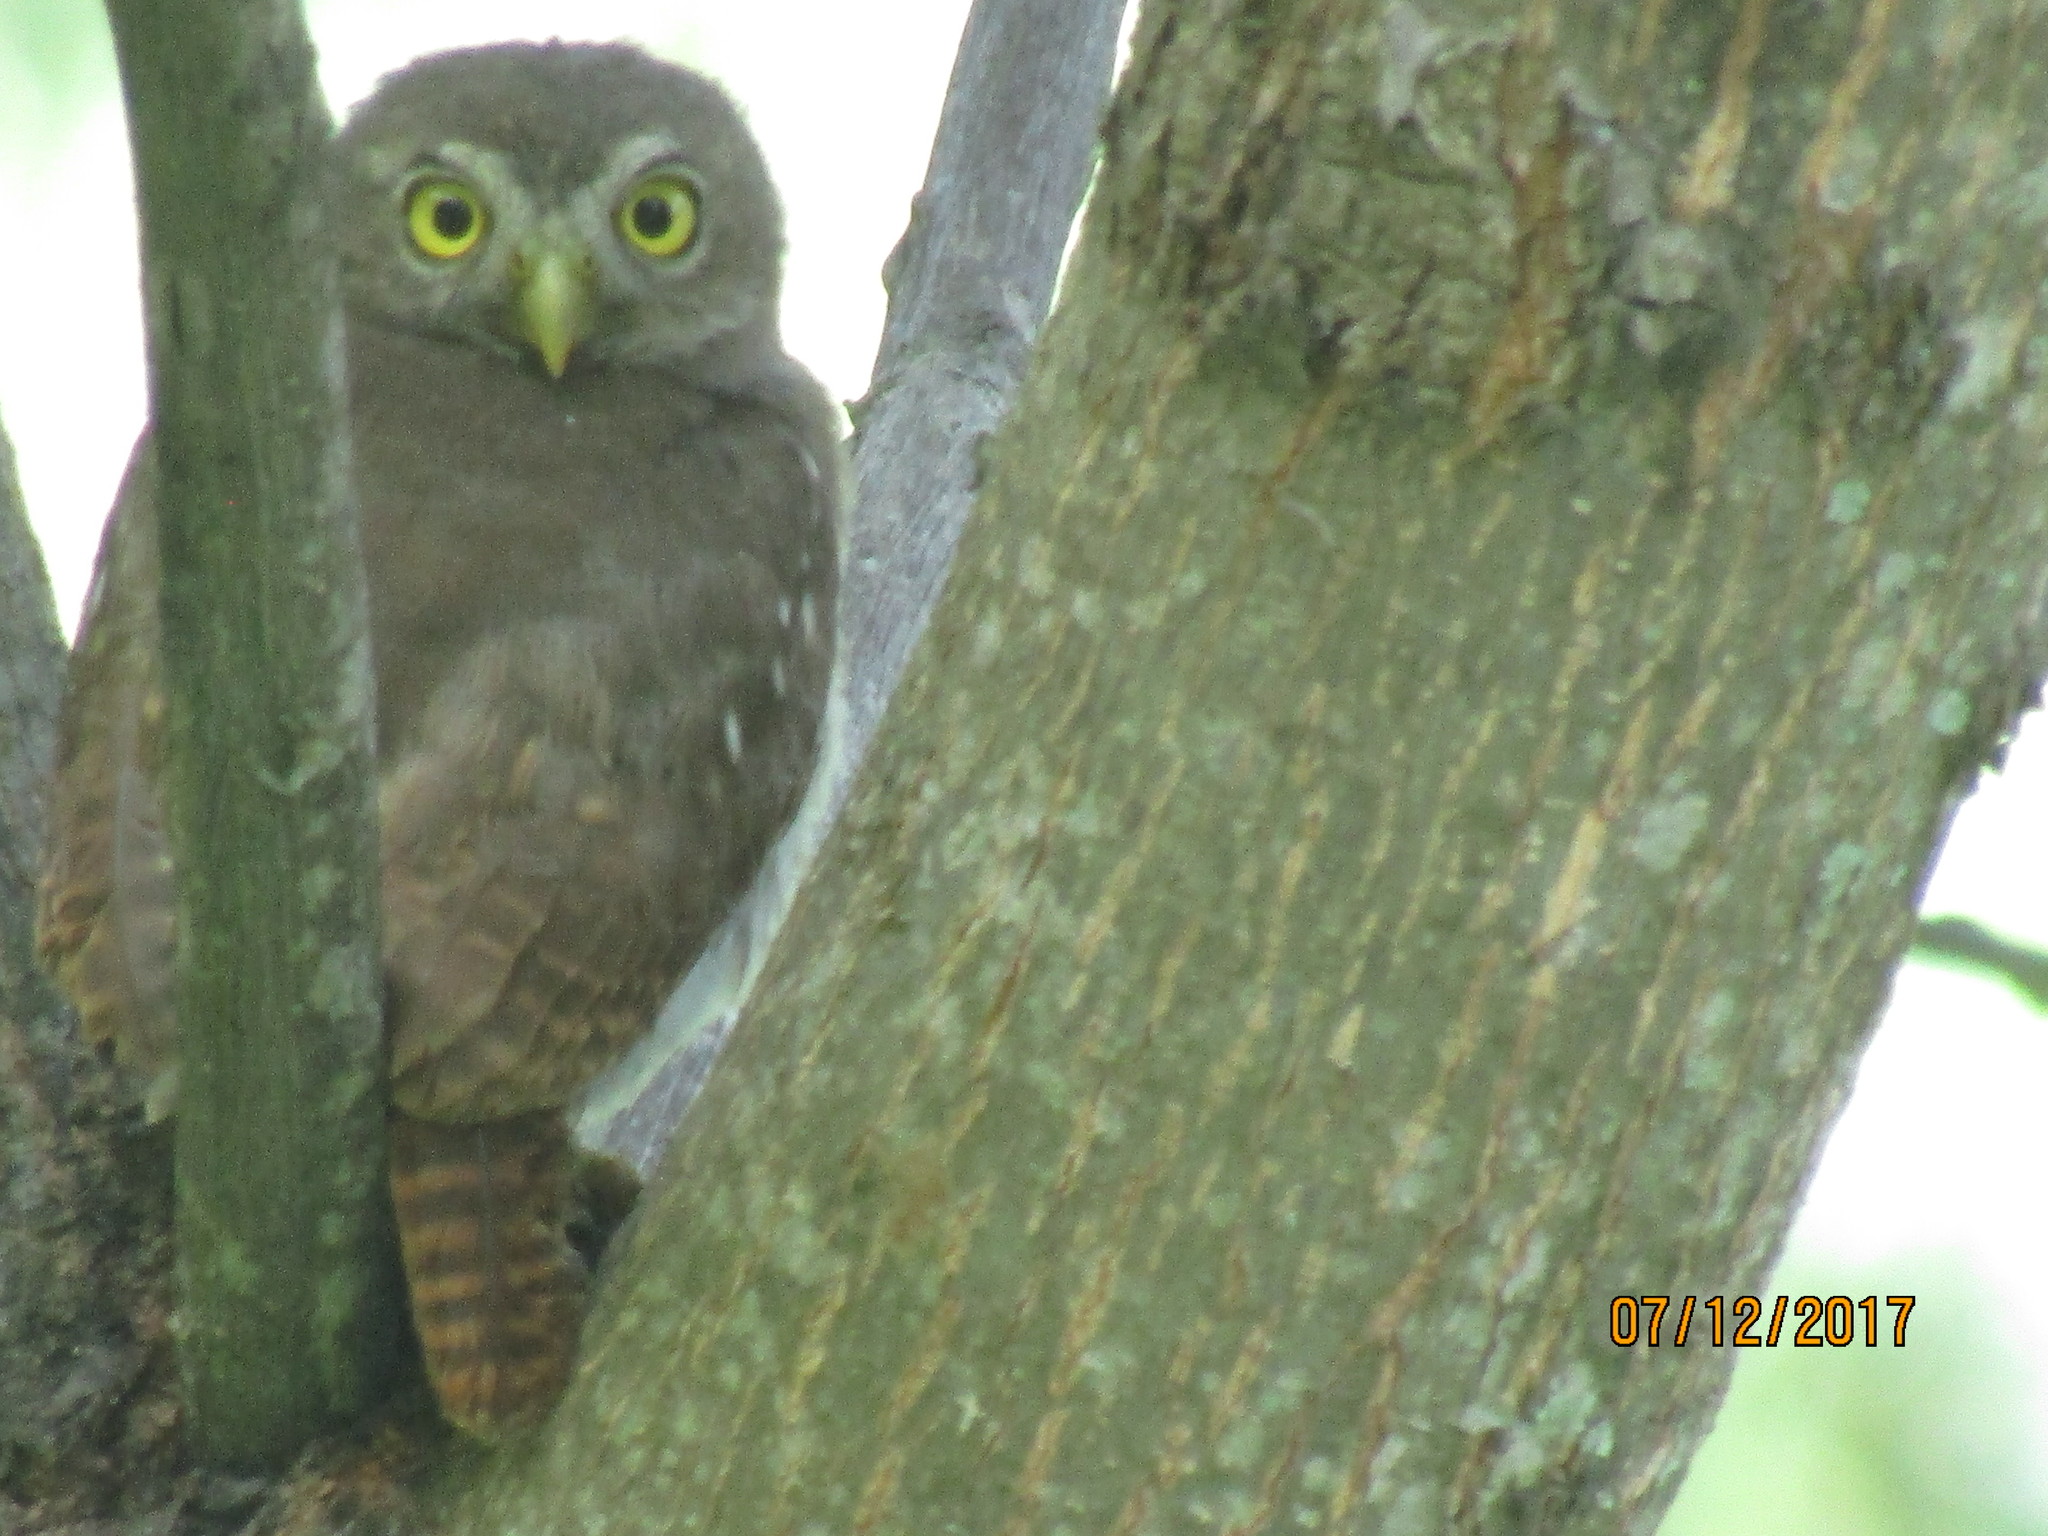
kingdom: Animalia
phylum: Chordata
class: Aves
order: Strigiformes
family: Strigidae
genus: Glaucidium
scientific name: Glaucidium brasilianum
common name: Ferruginous pygmy-owl
